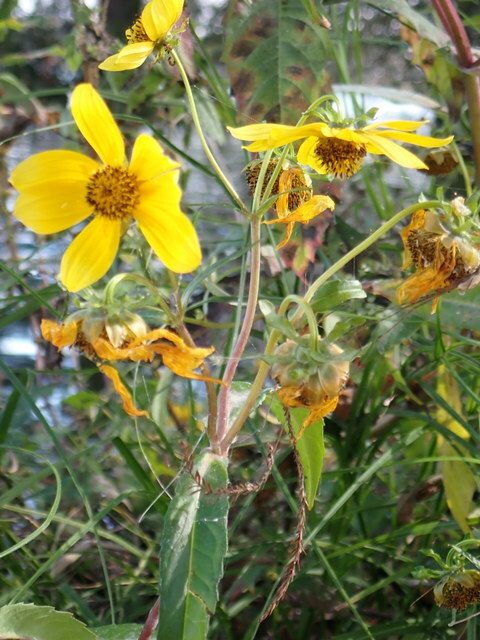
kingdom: Plantae
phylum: Tracheophyta
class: Magnoliopsida
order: Asterales
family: Asteraceae
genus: Bidens
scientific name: Bidens laevis
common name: Larger bur-marigold
